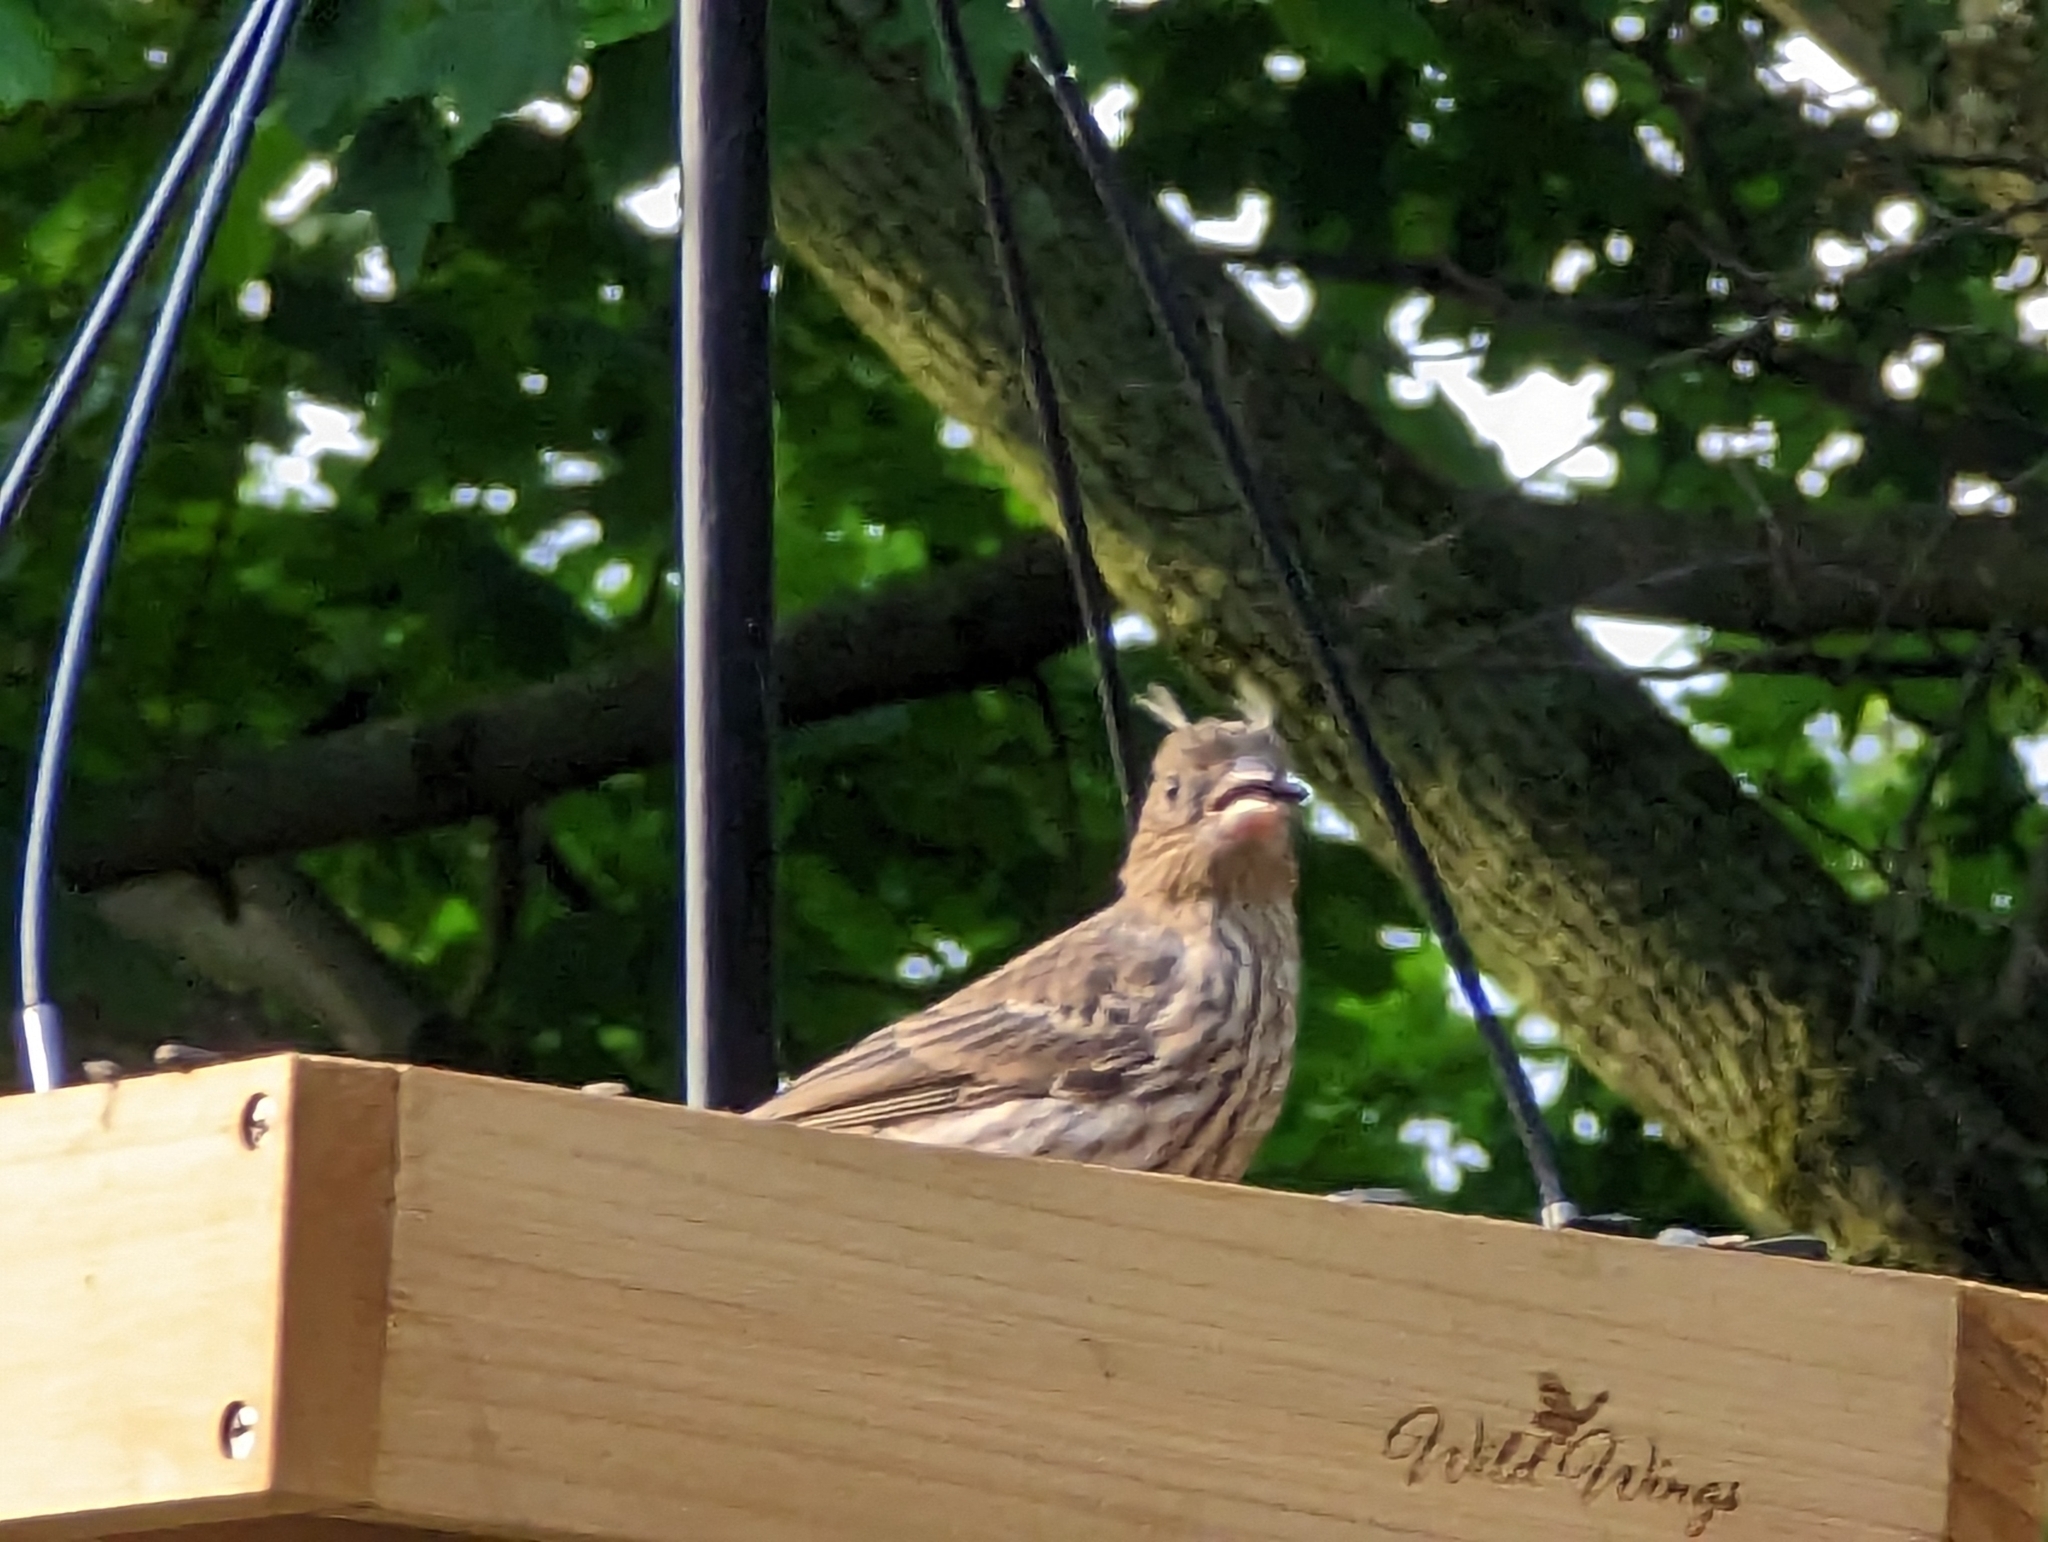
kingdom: Animalia
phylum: Chordata
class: Aves
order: Passeriformes
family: Fringillidae
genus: Haemorhous
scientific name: Haemorhous mexicanus
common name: House finch
